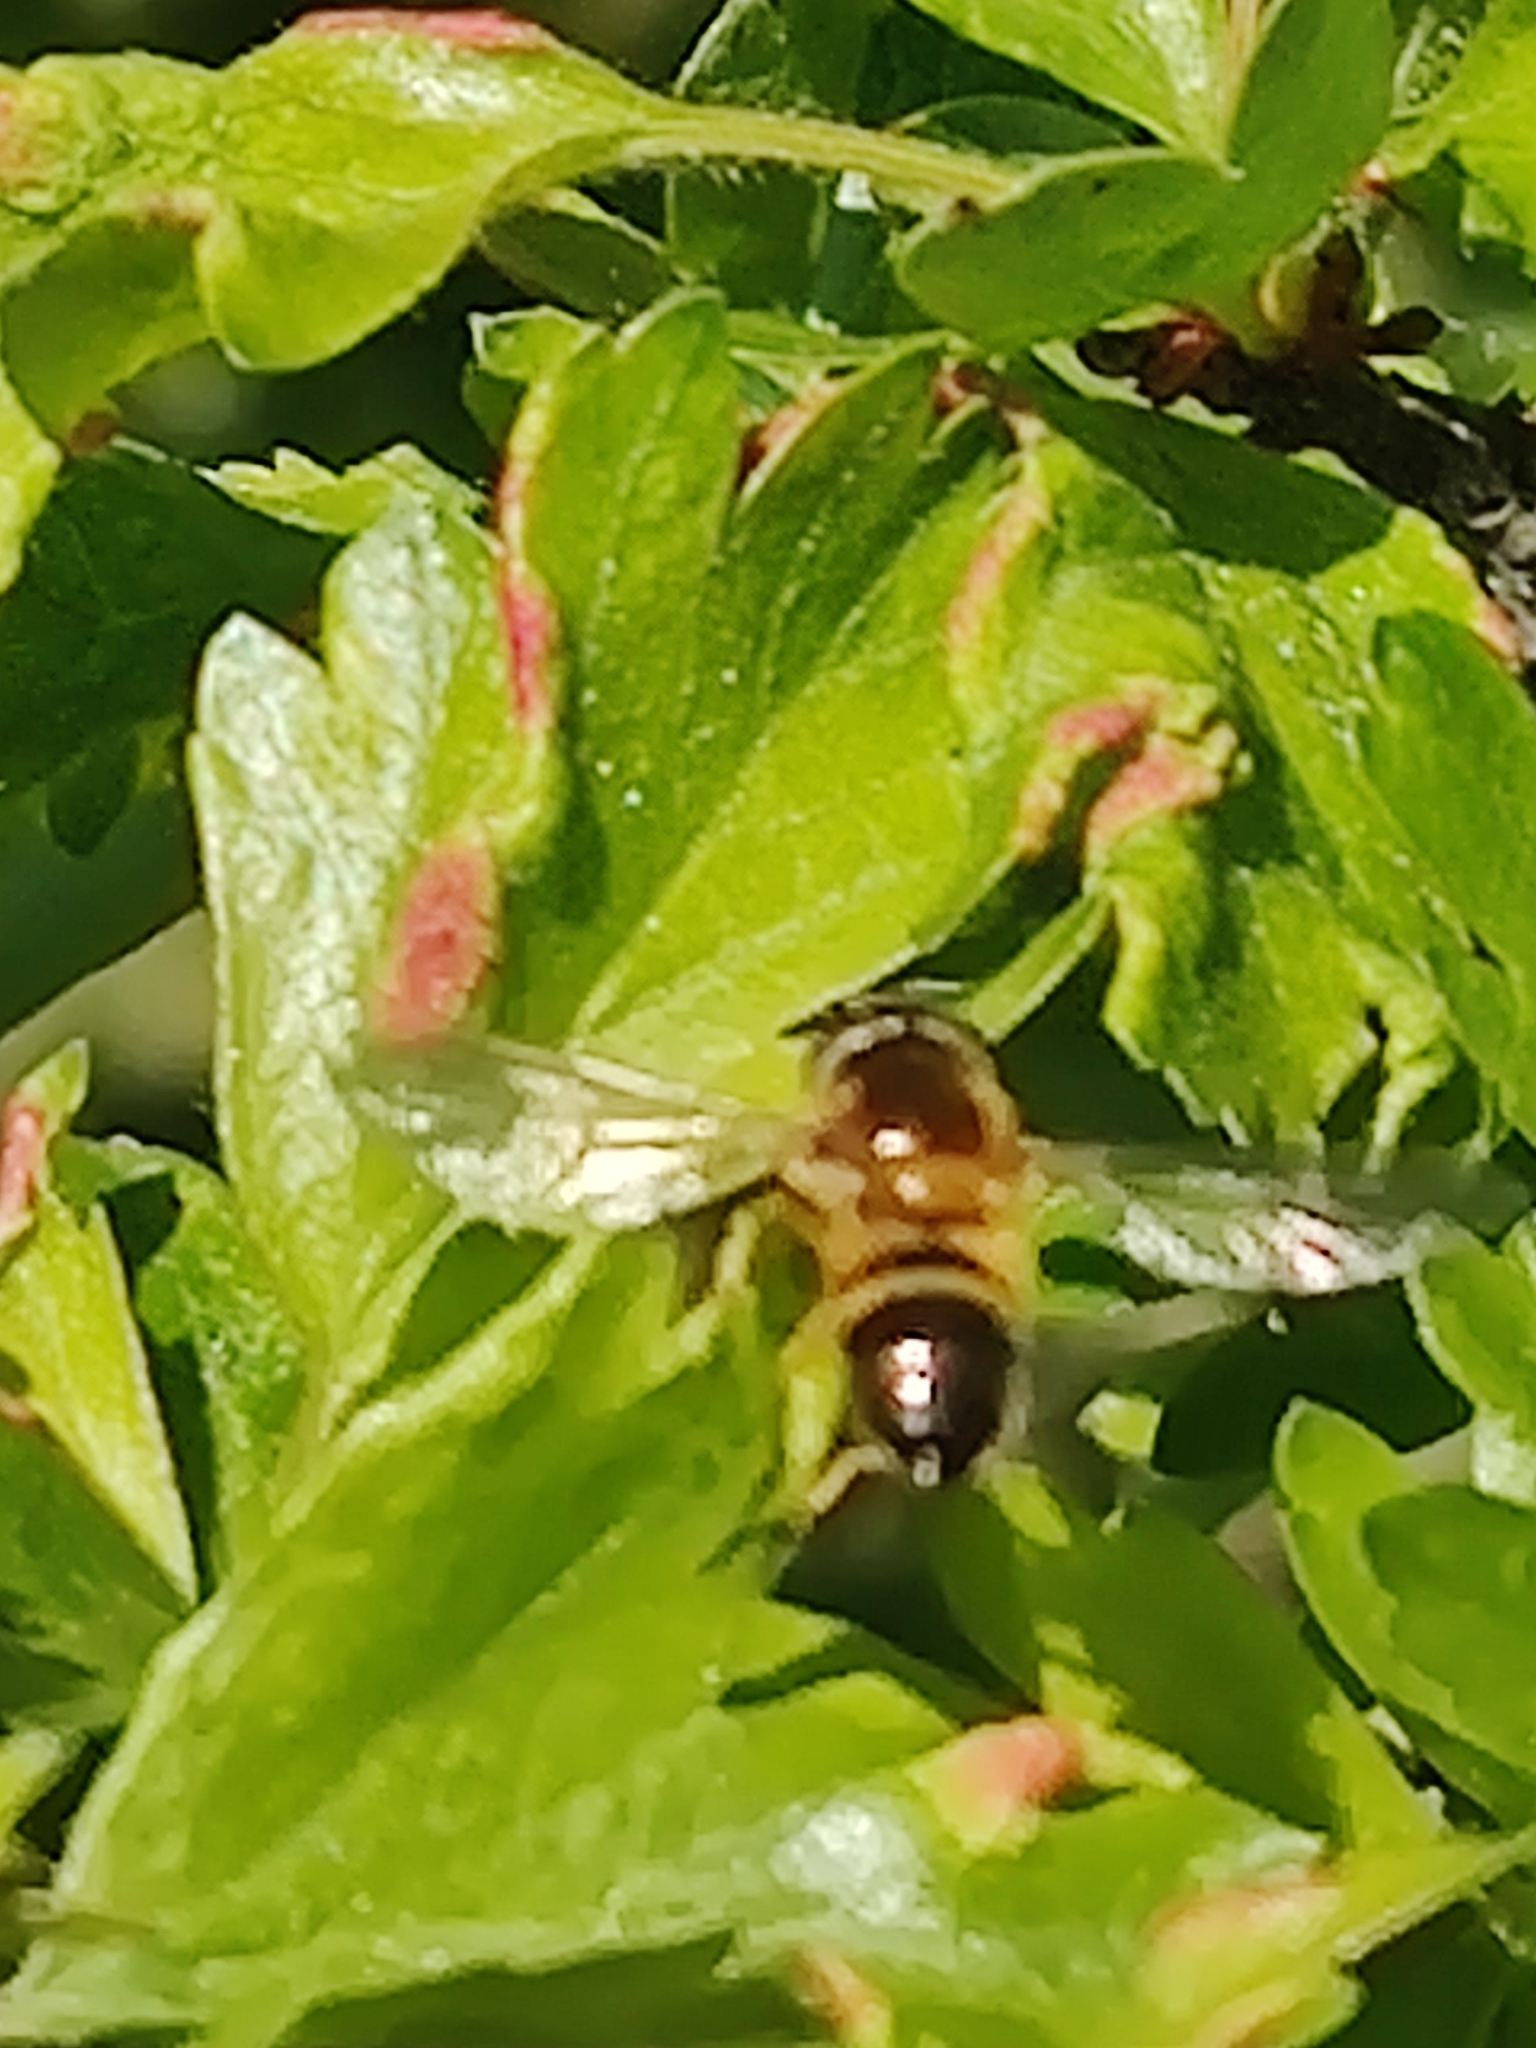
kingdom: Animalia
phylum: Arthropoda
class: Insecta
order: Diptera
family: Syrphidae
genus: Epistrophe
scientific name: Epistrophe eligans
